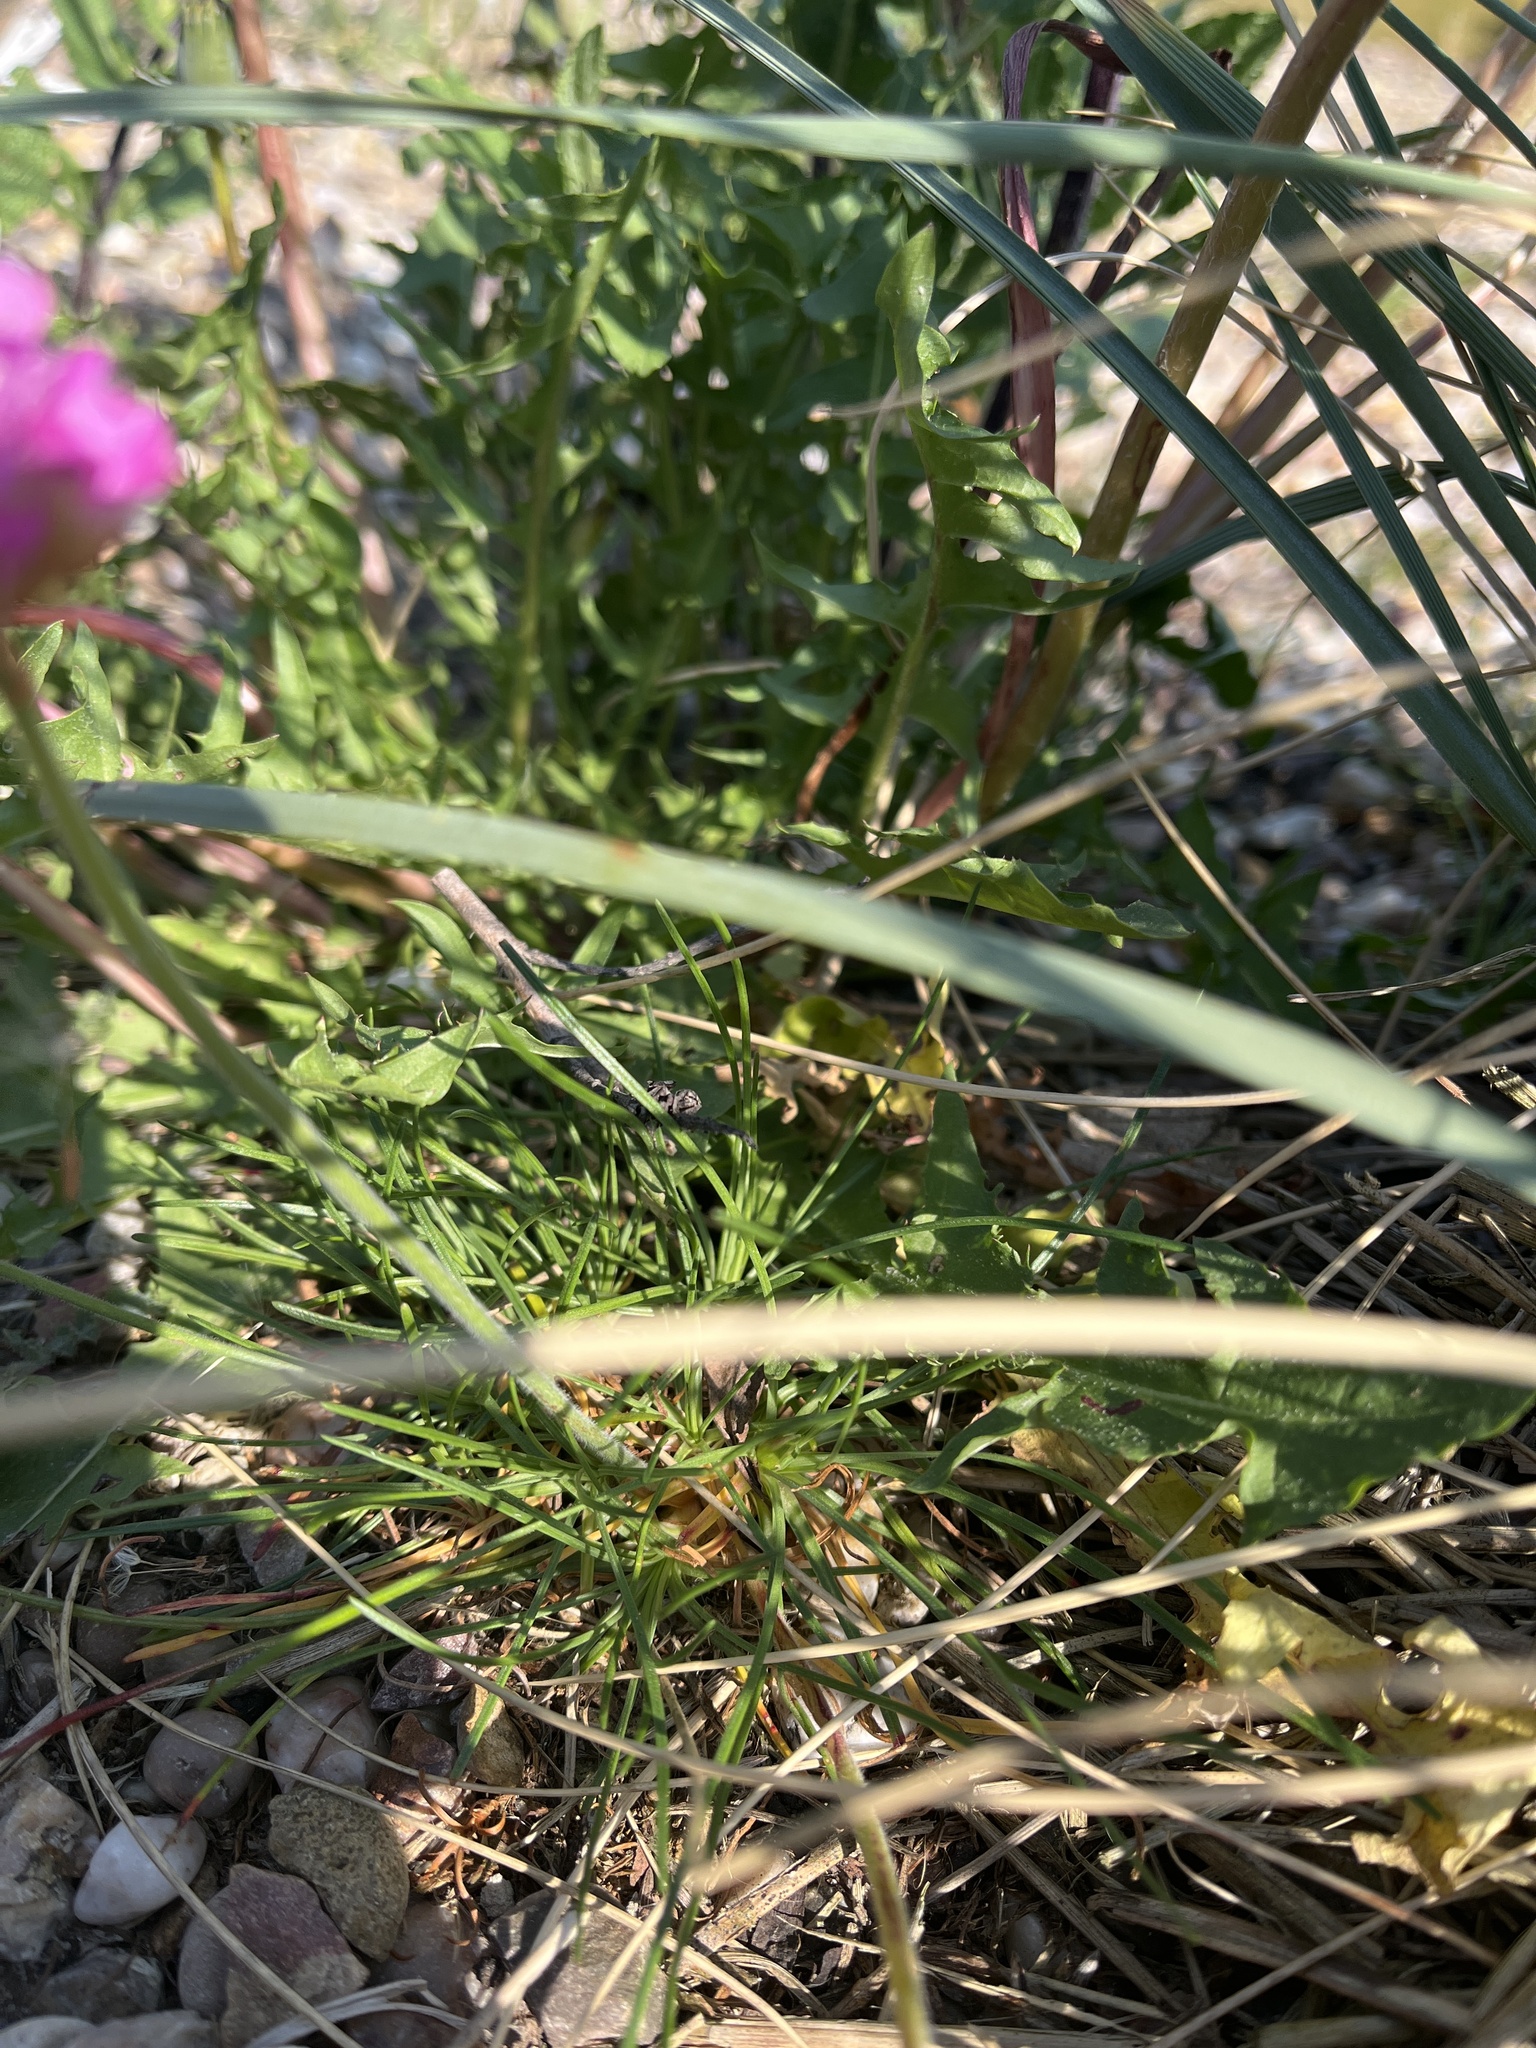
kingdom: Plantae
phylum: Tracheophyta
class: Magnoliopsida
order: Caryophyllales
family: Plumbaginaceae
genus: Armeria
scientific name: Armeria maritima
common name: Thrift
